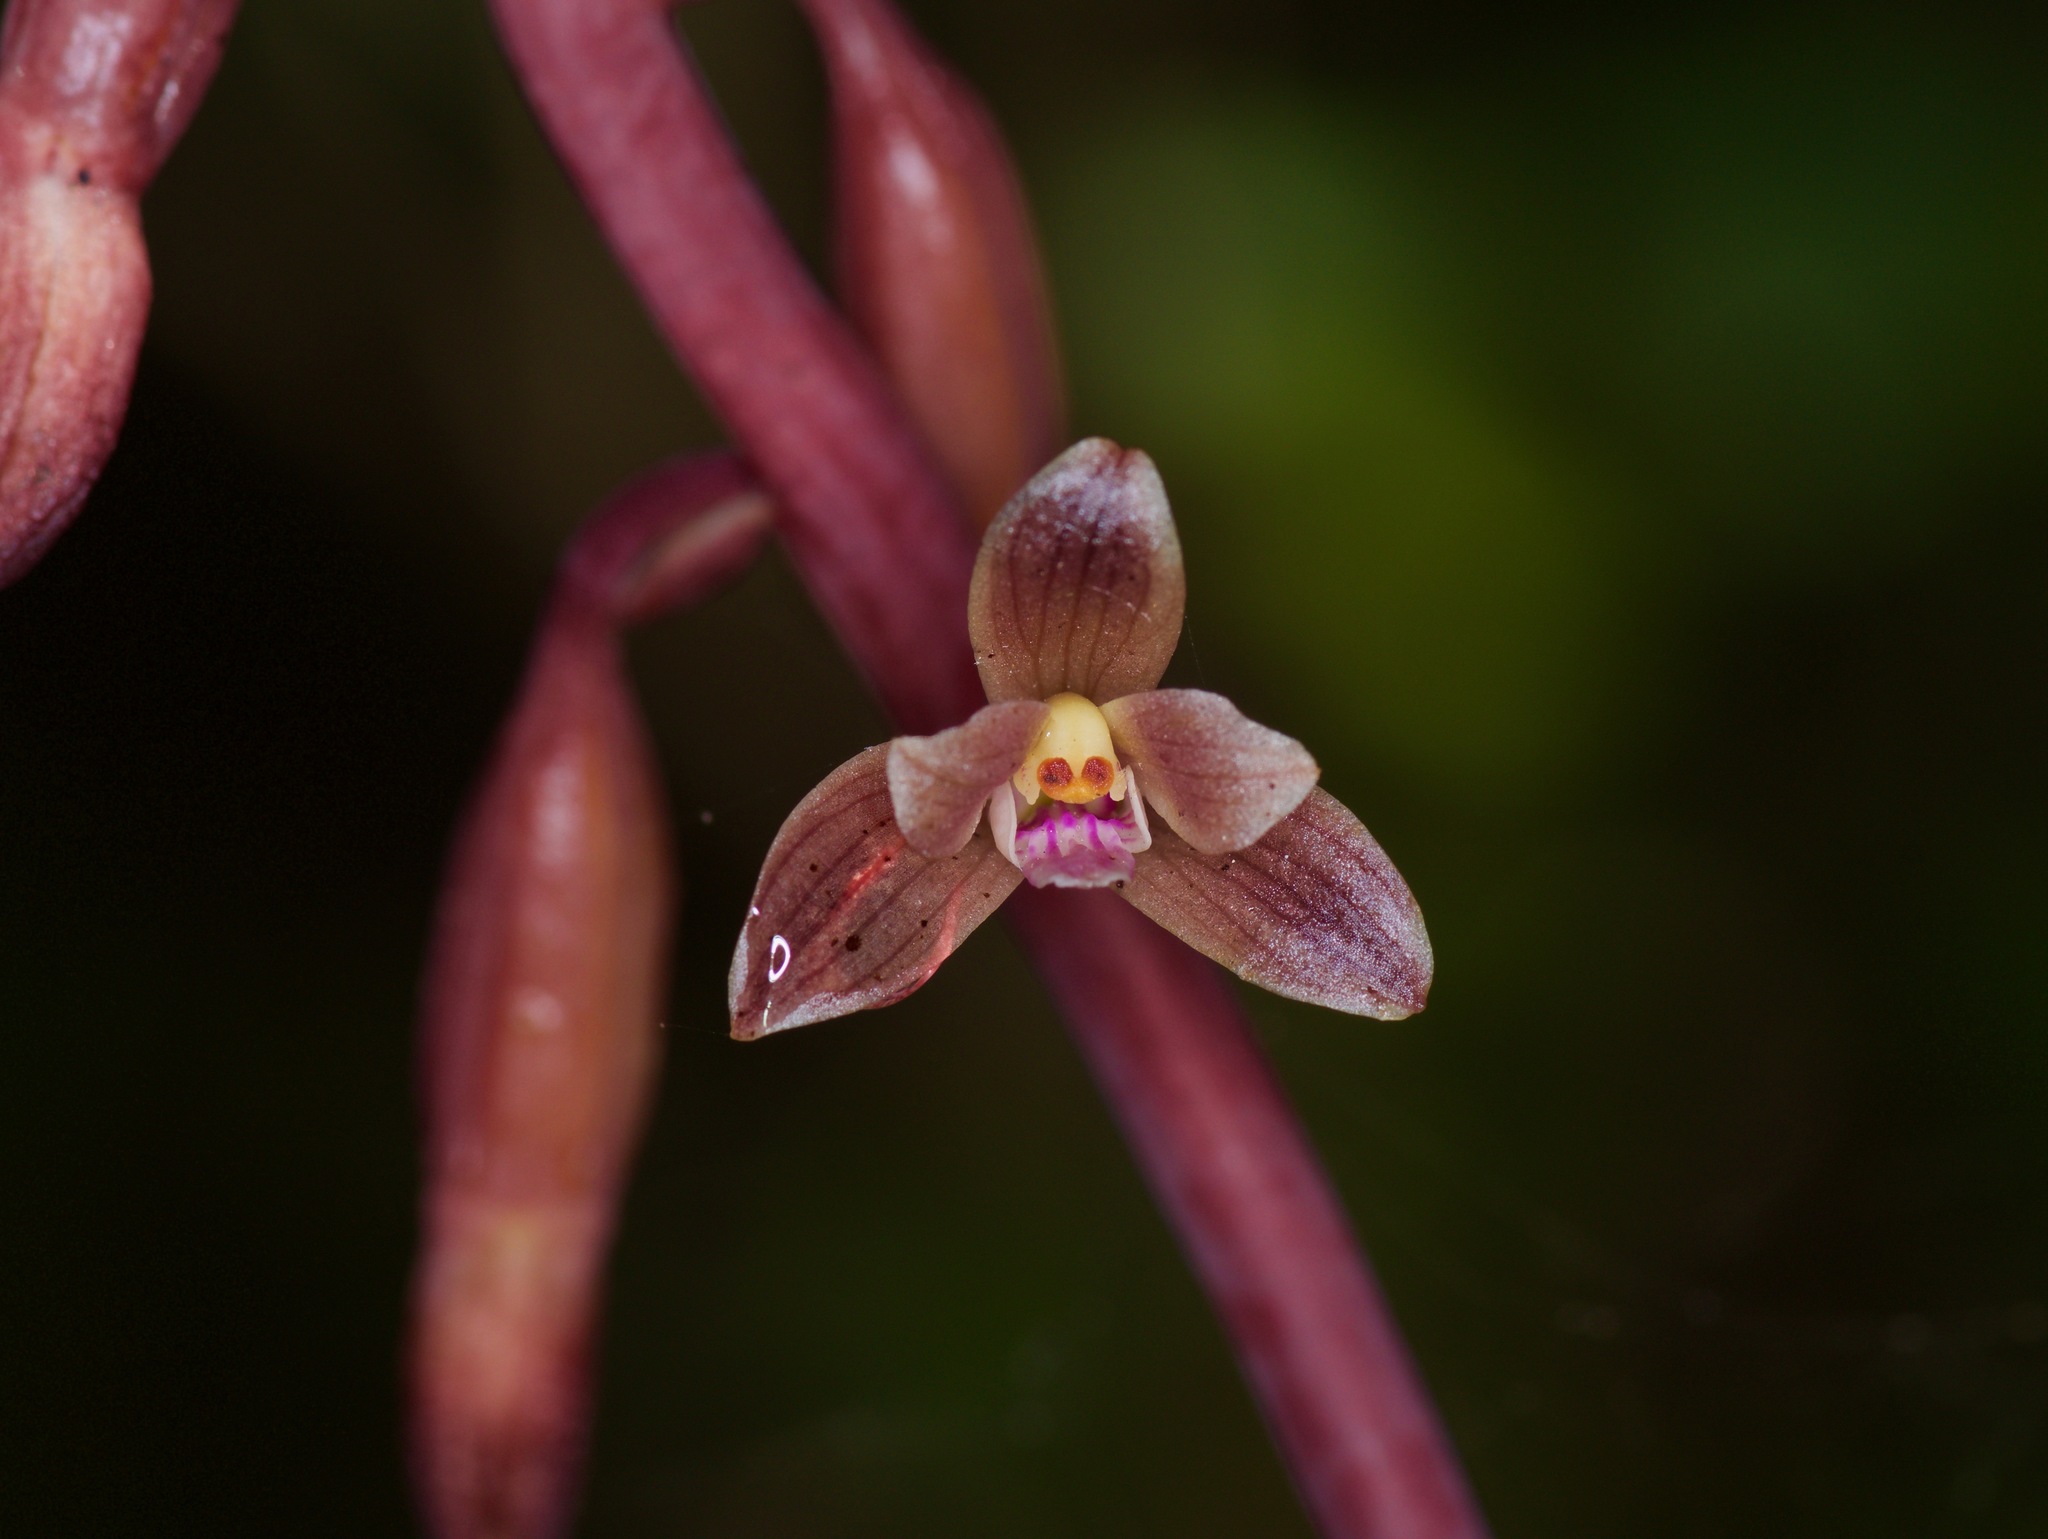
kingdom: Plantae
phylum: Tracheophyta
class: Liliopsida
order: Asparagales
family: Orchidaceae
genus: Bletia
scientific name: Bletia nitida
